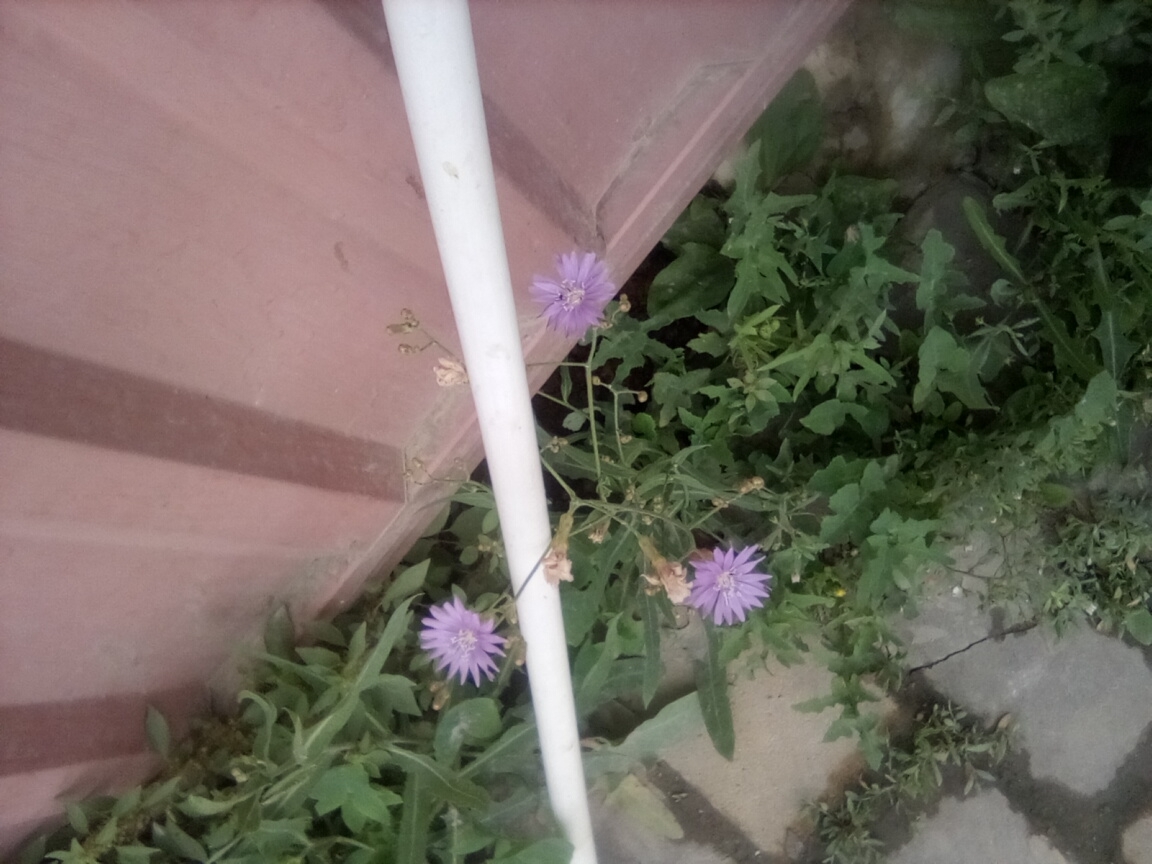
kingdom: Plantae
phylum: Tracheophyta
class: Magnoliopsida
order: Asterales
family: Asteraceae
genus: Lactuca
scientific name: Lactuca tatarica
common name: Blue lettuce
